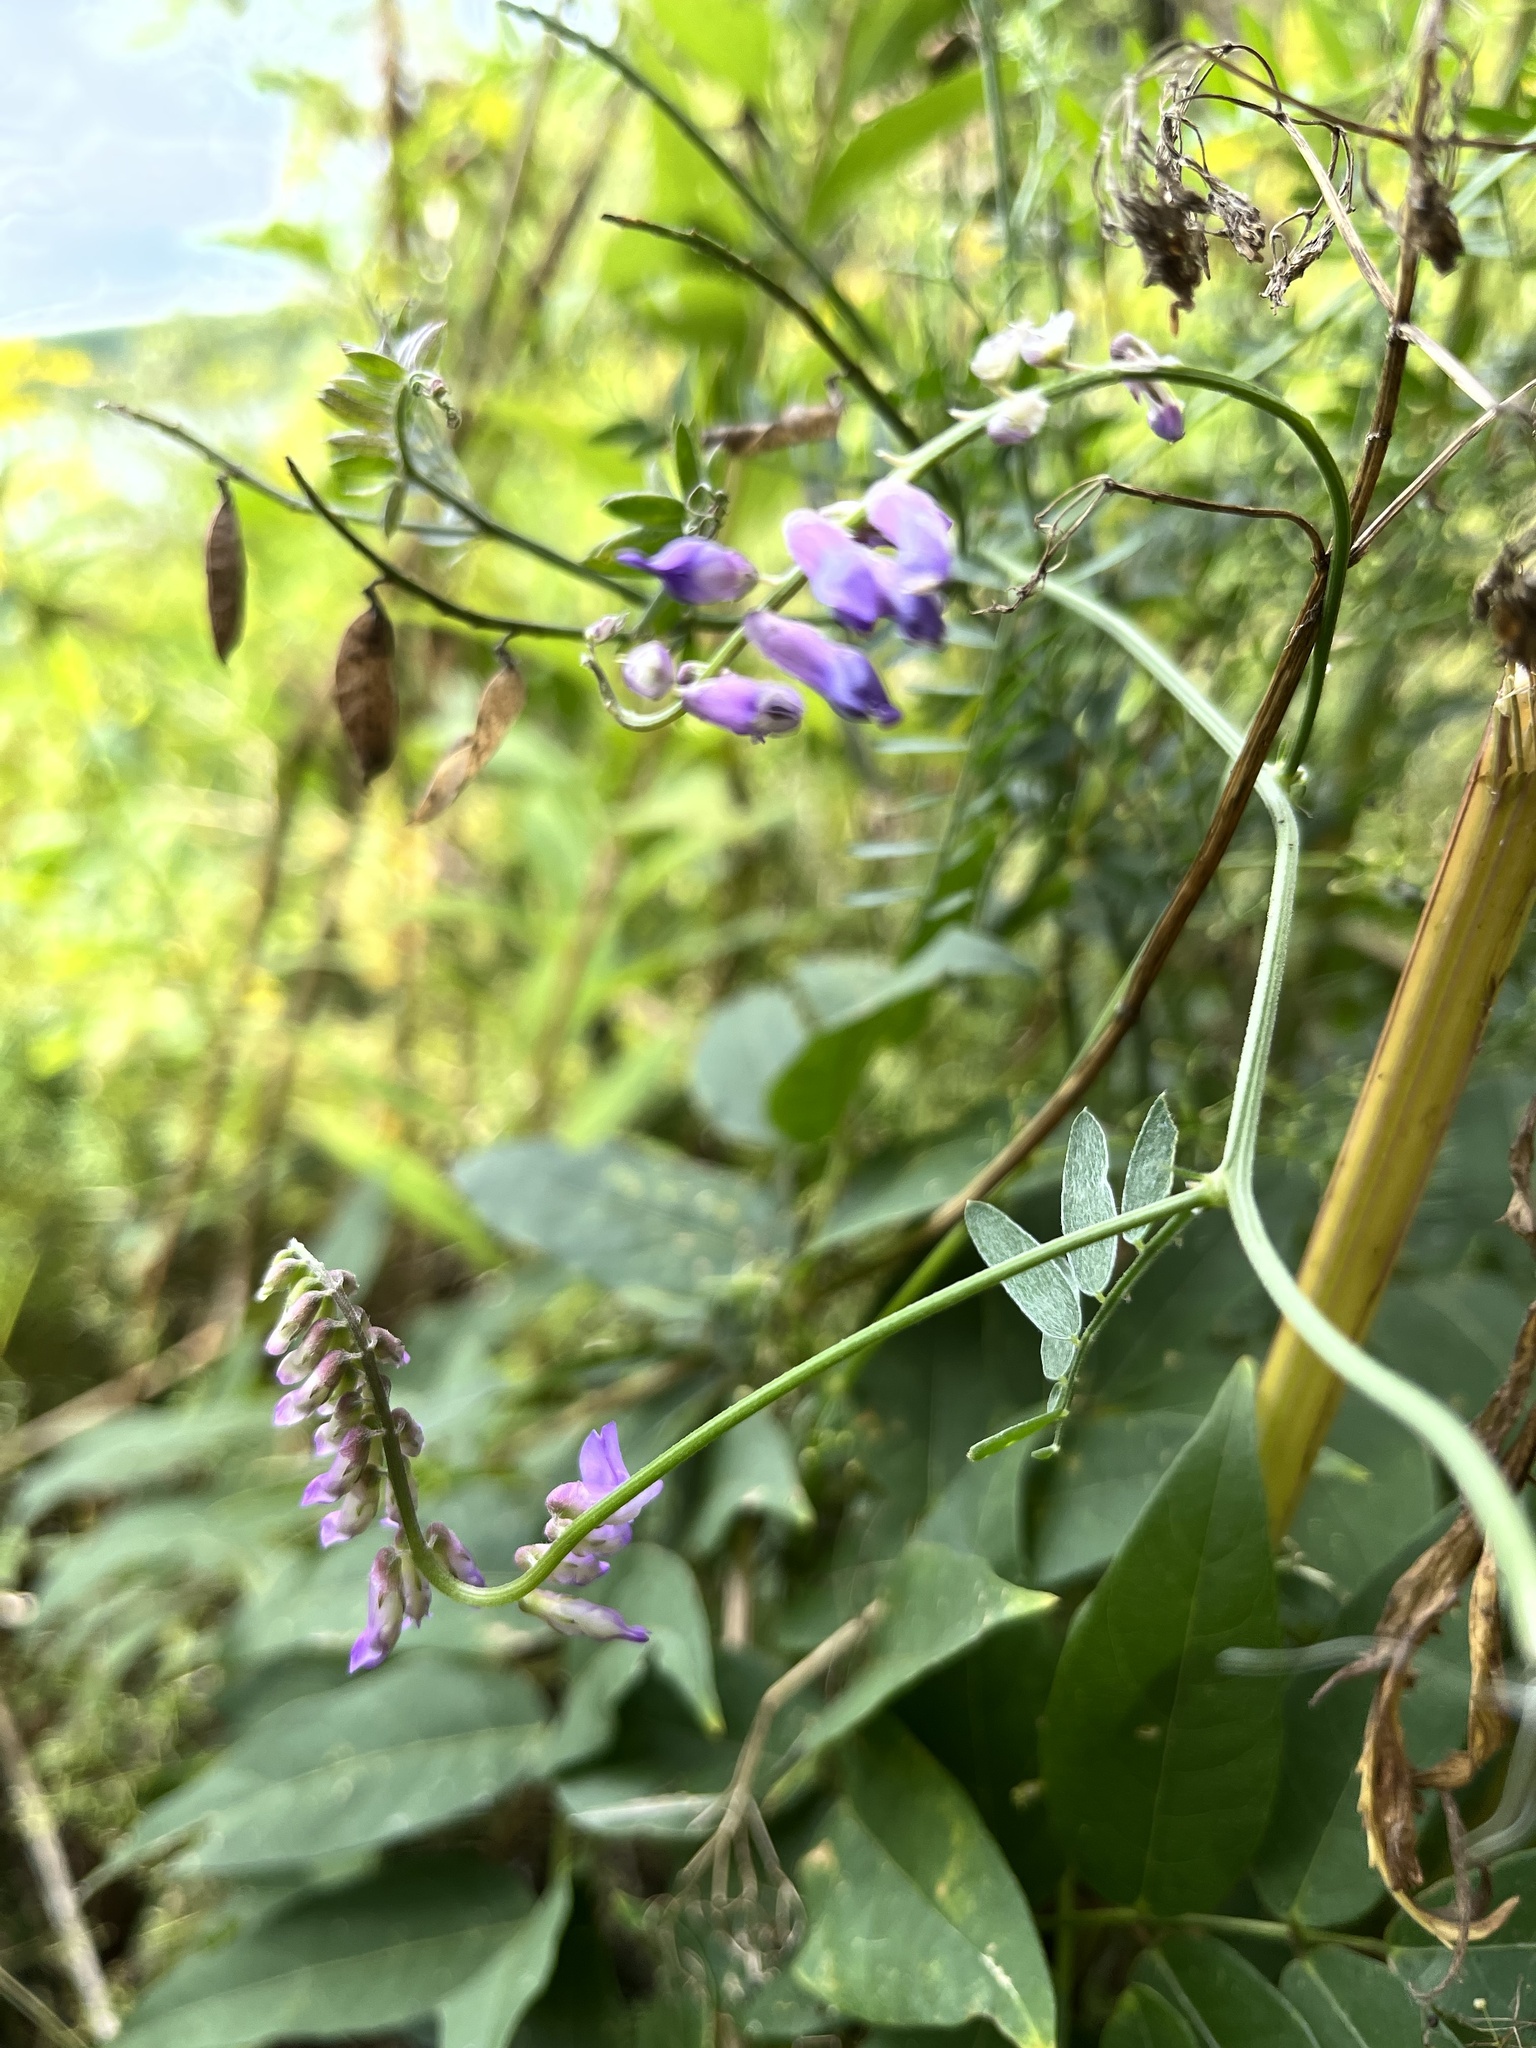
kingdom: Plantae
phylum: Tracheophyta
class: Magnoliopsida
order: Fabales
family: Fabaceae
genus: Vicia
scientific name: Vicia cracca
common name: Bird vetch
